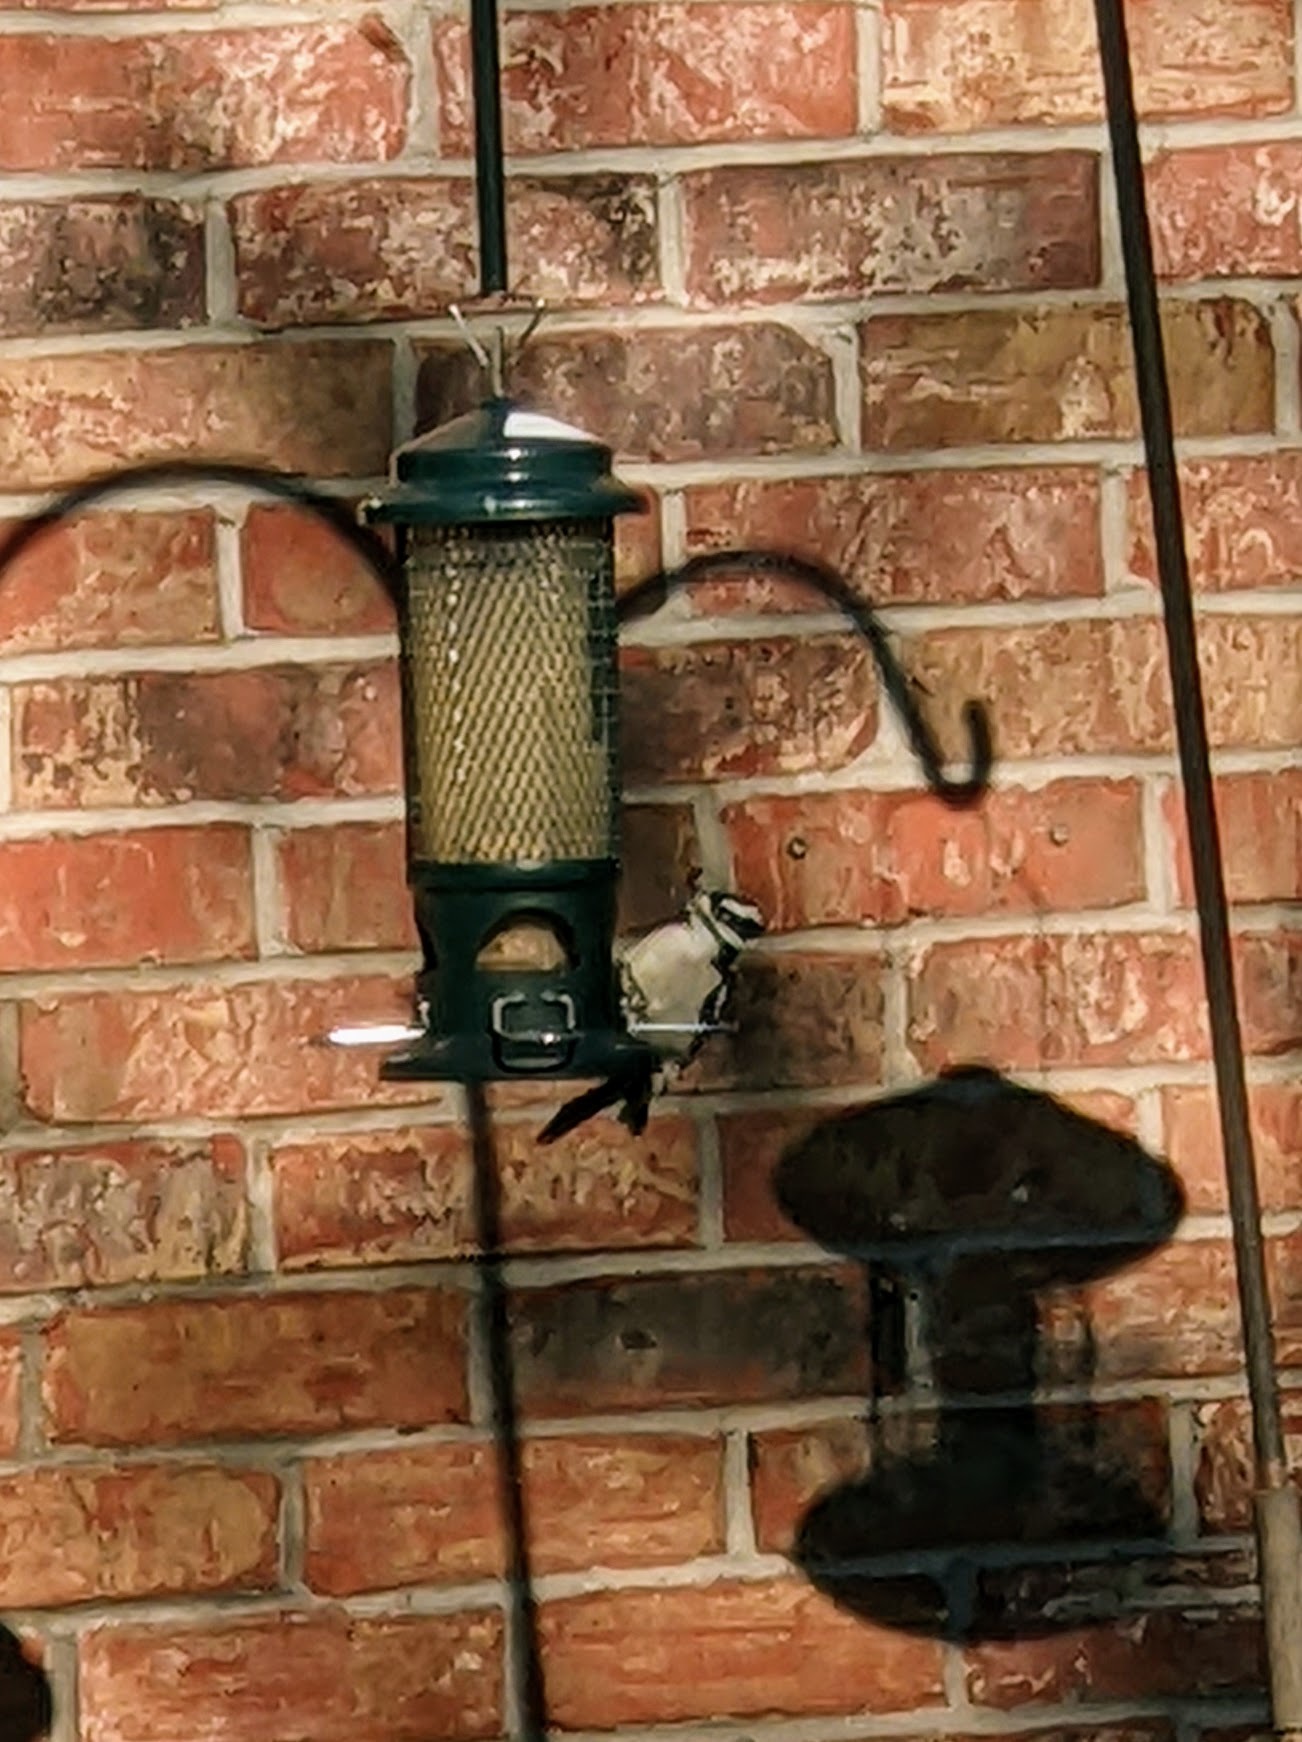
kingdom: Animalia
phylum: Chordata
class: Aves
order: Piciformes
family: Picidae
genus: Dryobates
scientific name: Dryobates pubescens
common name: Downy woodpecker
